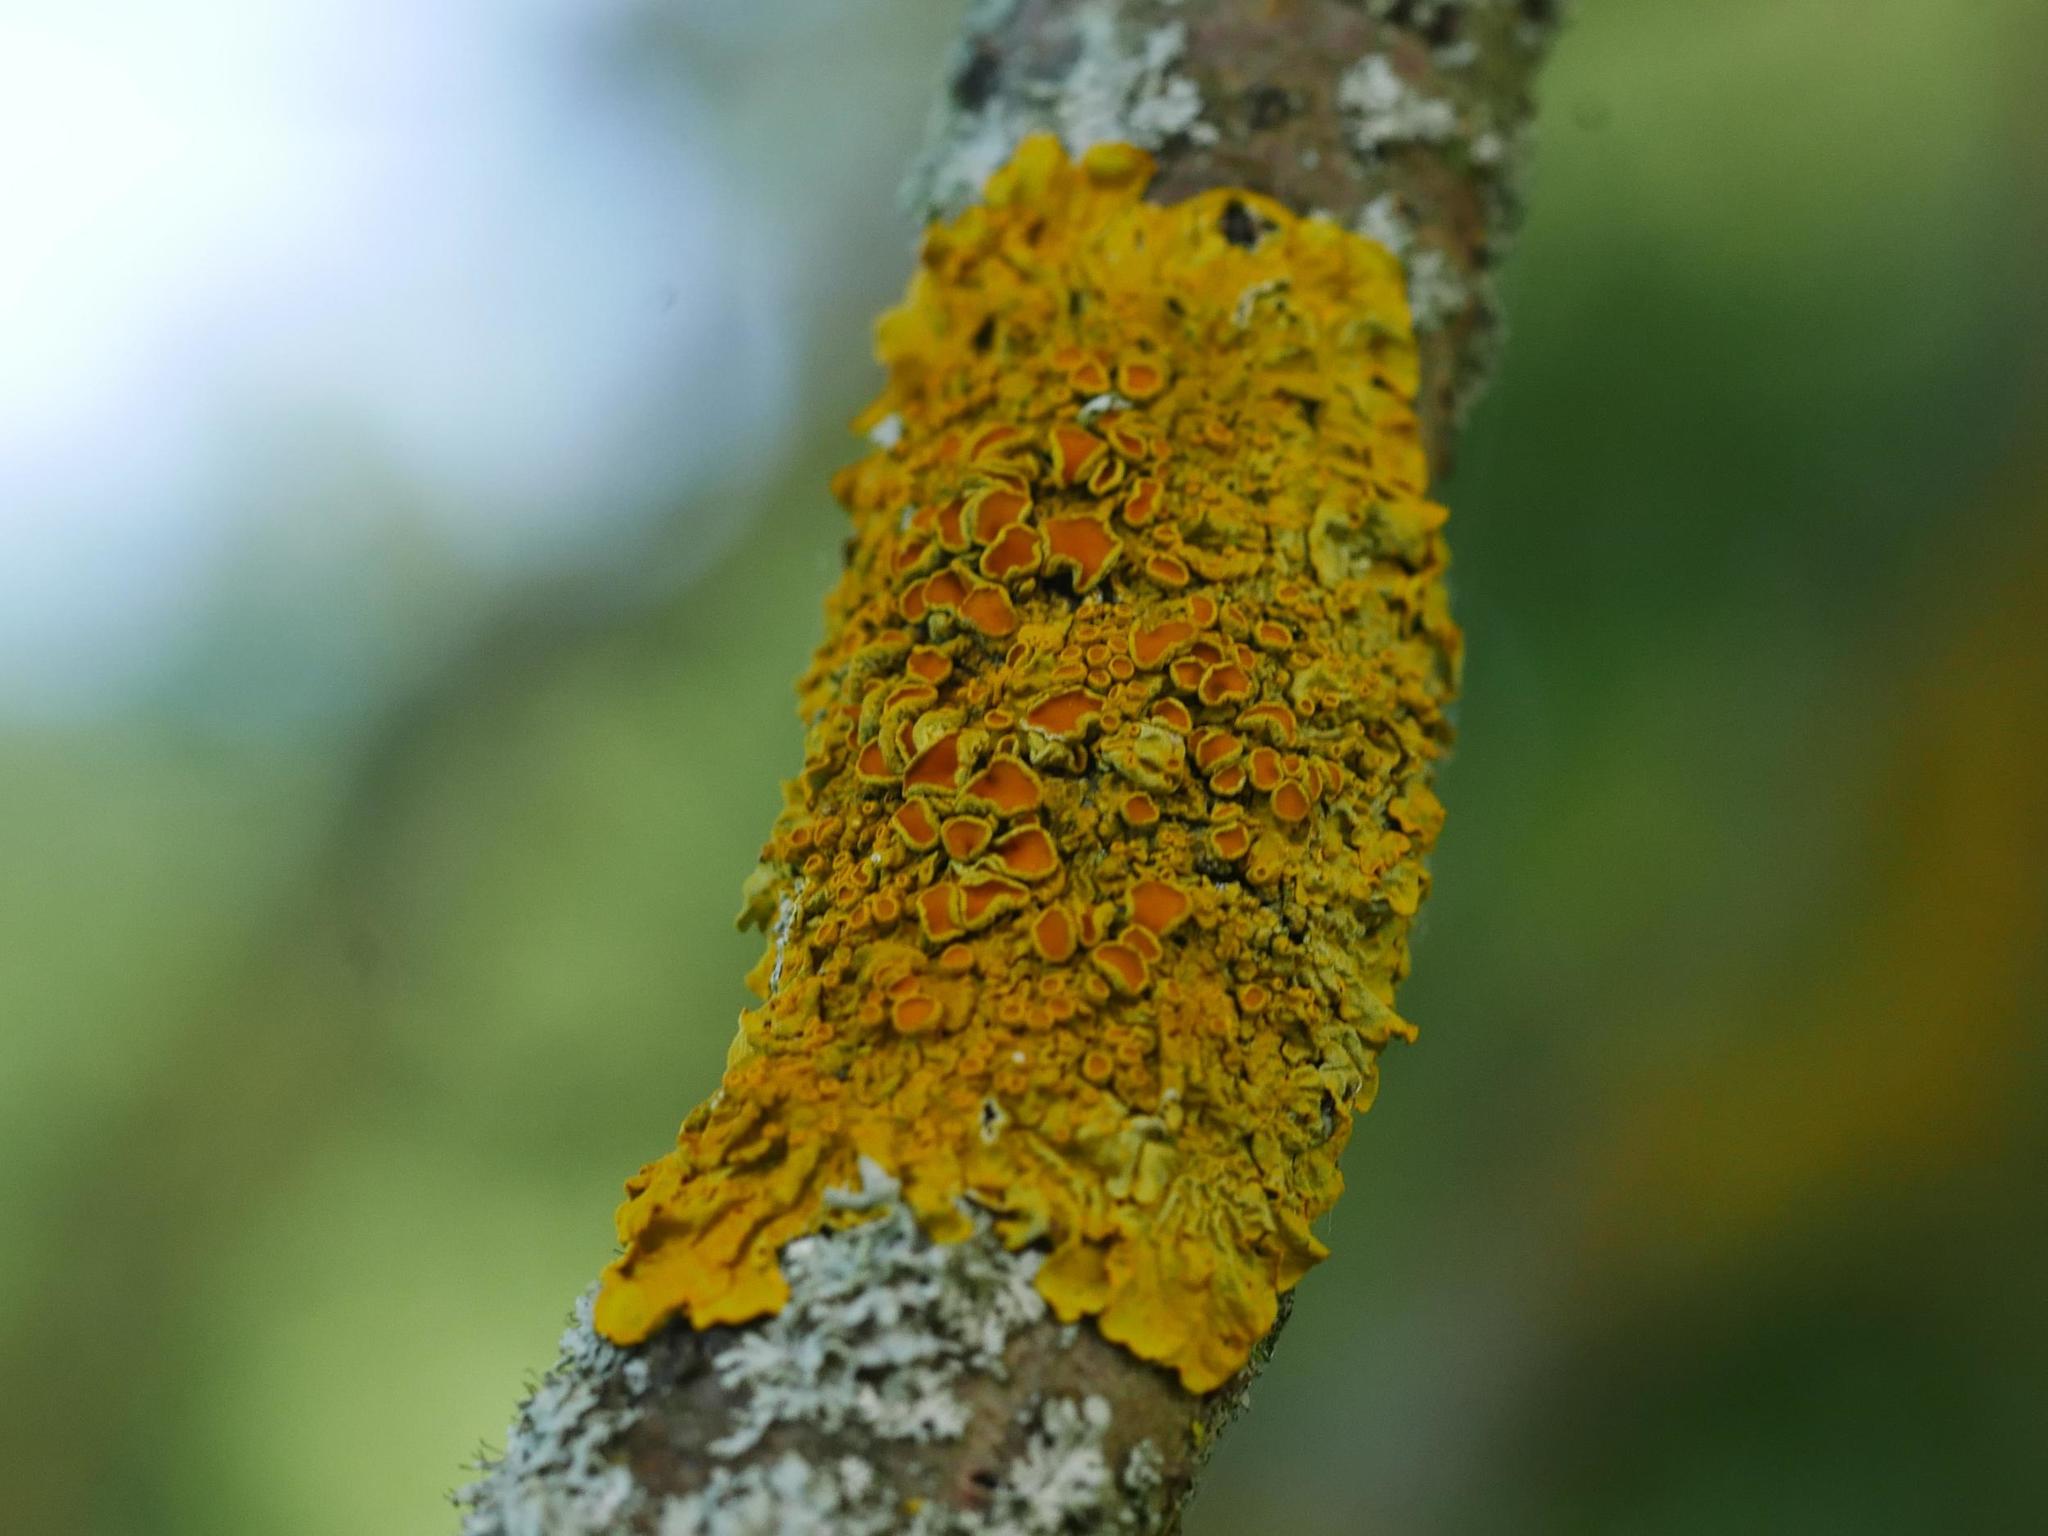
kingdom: Fungi
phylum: Ascomycota
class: Lecanoromycetes
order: Teloschistales
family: Teloschistaceae
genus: Xanthoria
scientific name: Xanthoria parietina
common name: Common orange lichen
